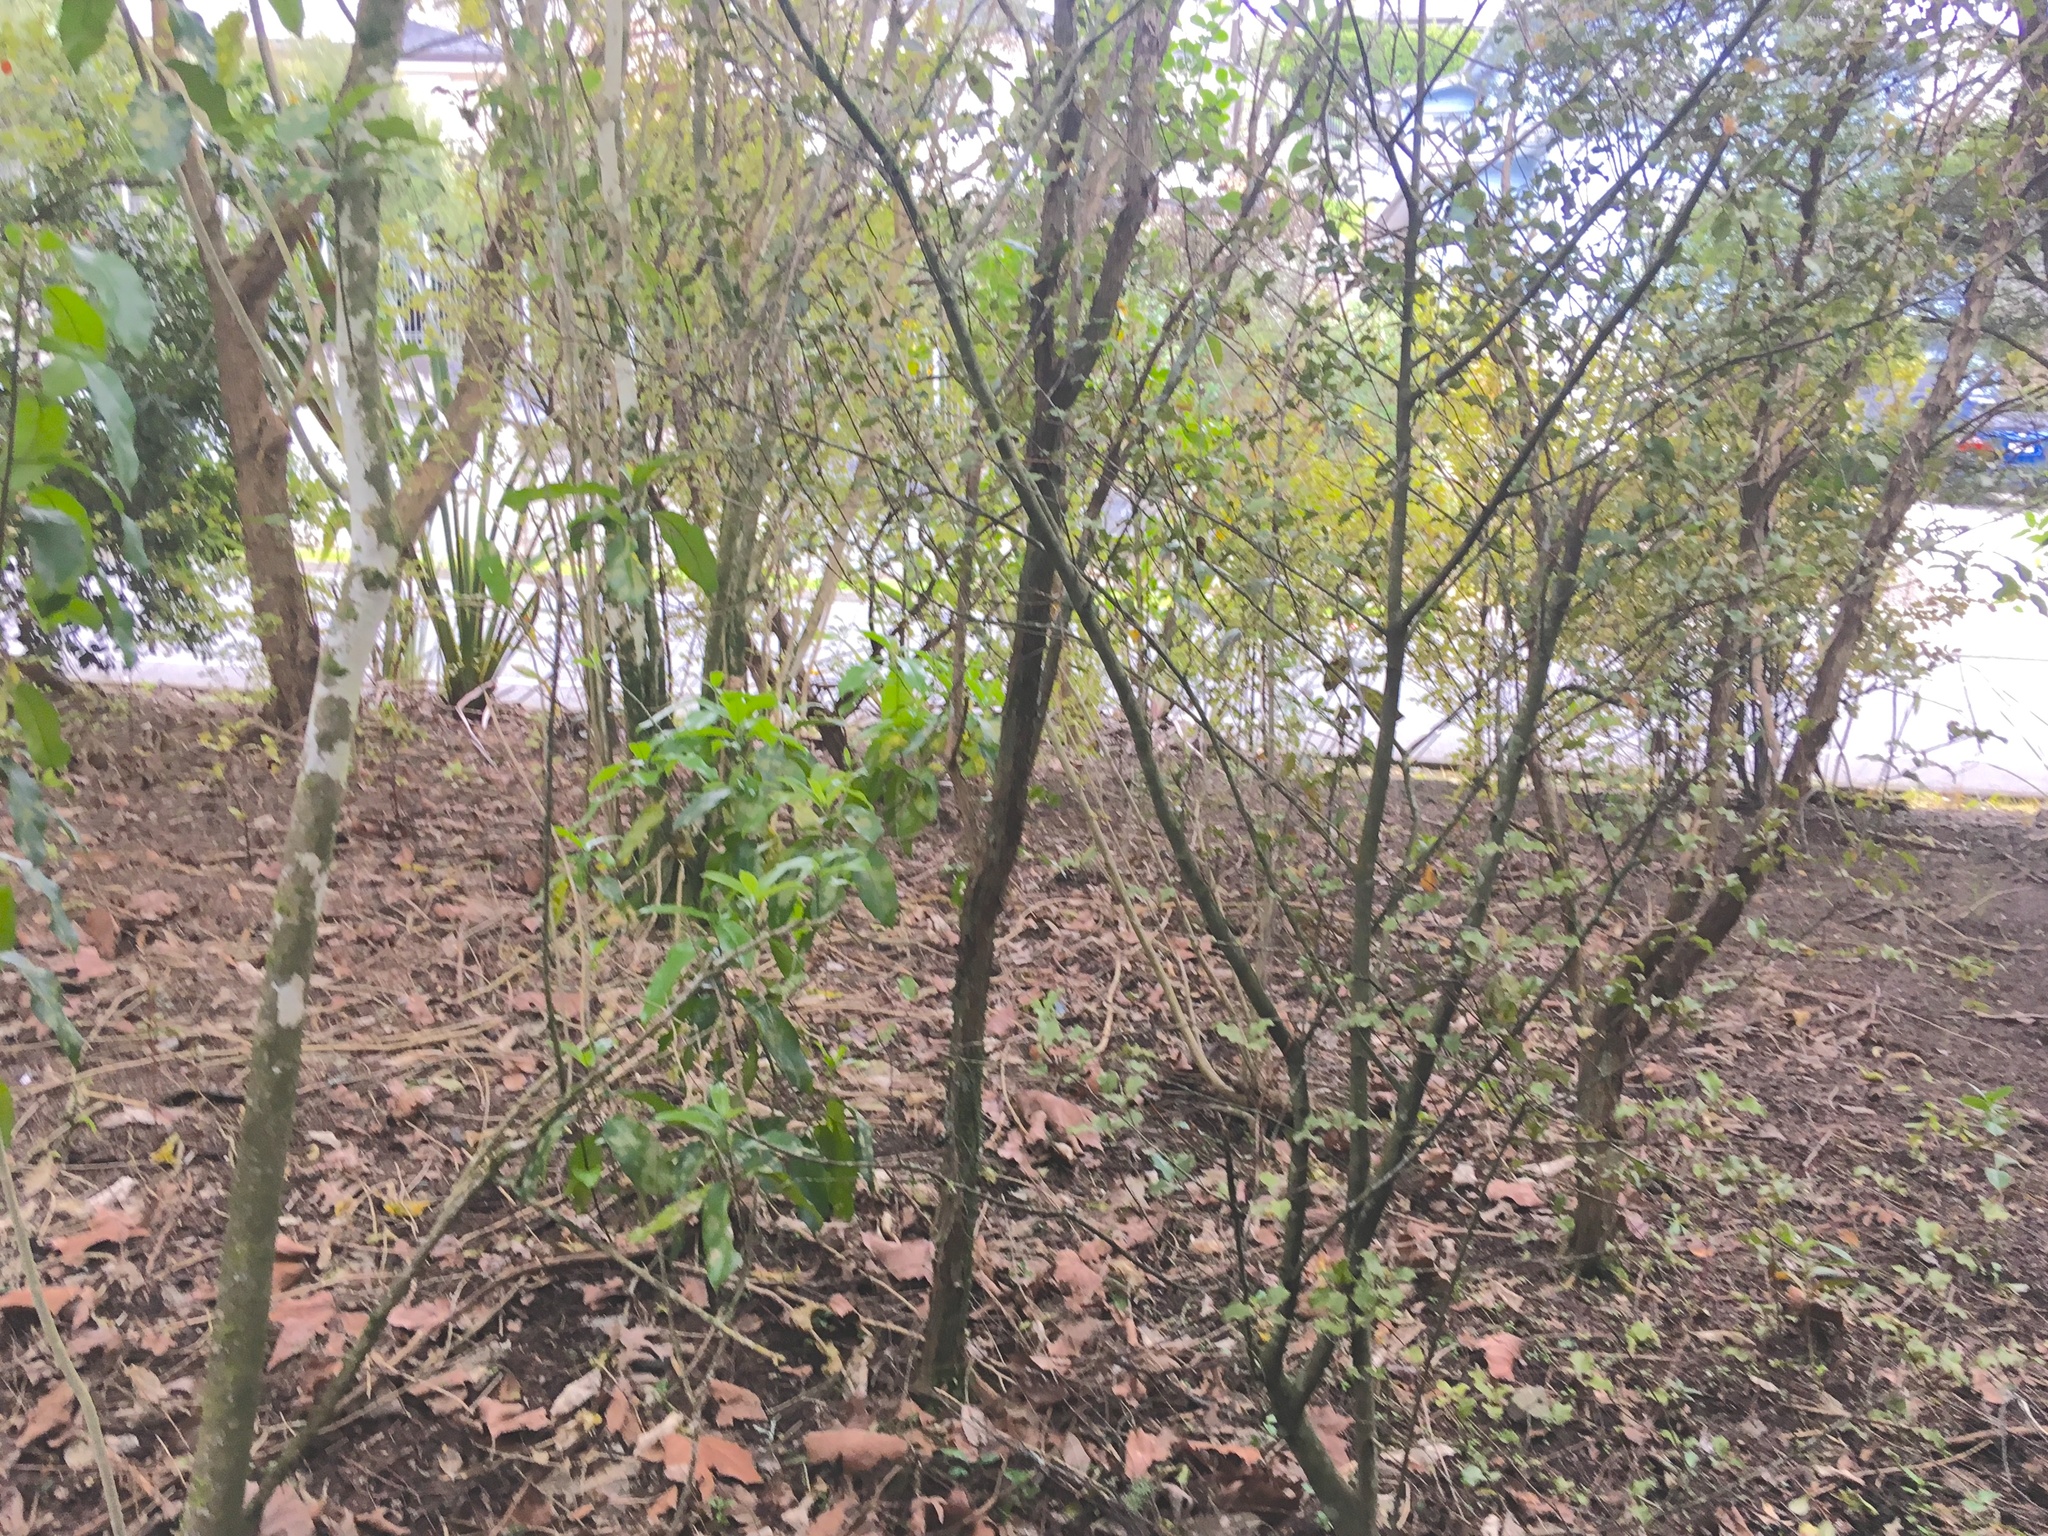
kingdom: Plantae
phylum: Tracheophyta
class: Magnoliopsida
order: Malpighiales
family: Violaceae
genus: Melicytus
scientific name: Melicytus ramiflorus
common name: Mahoe
